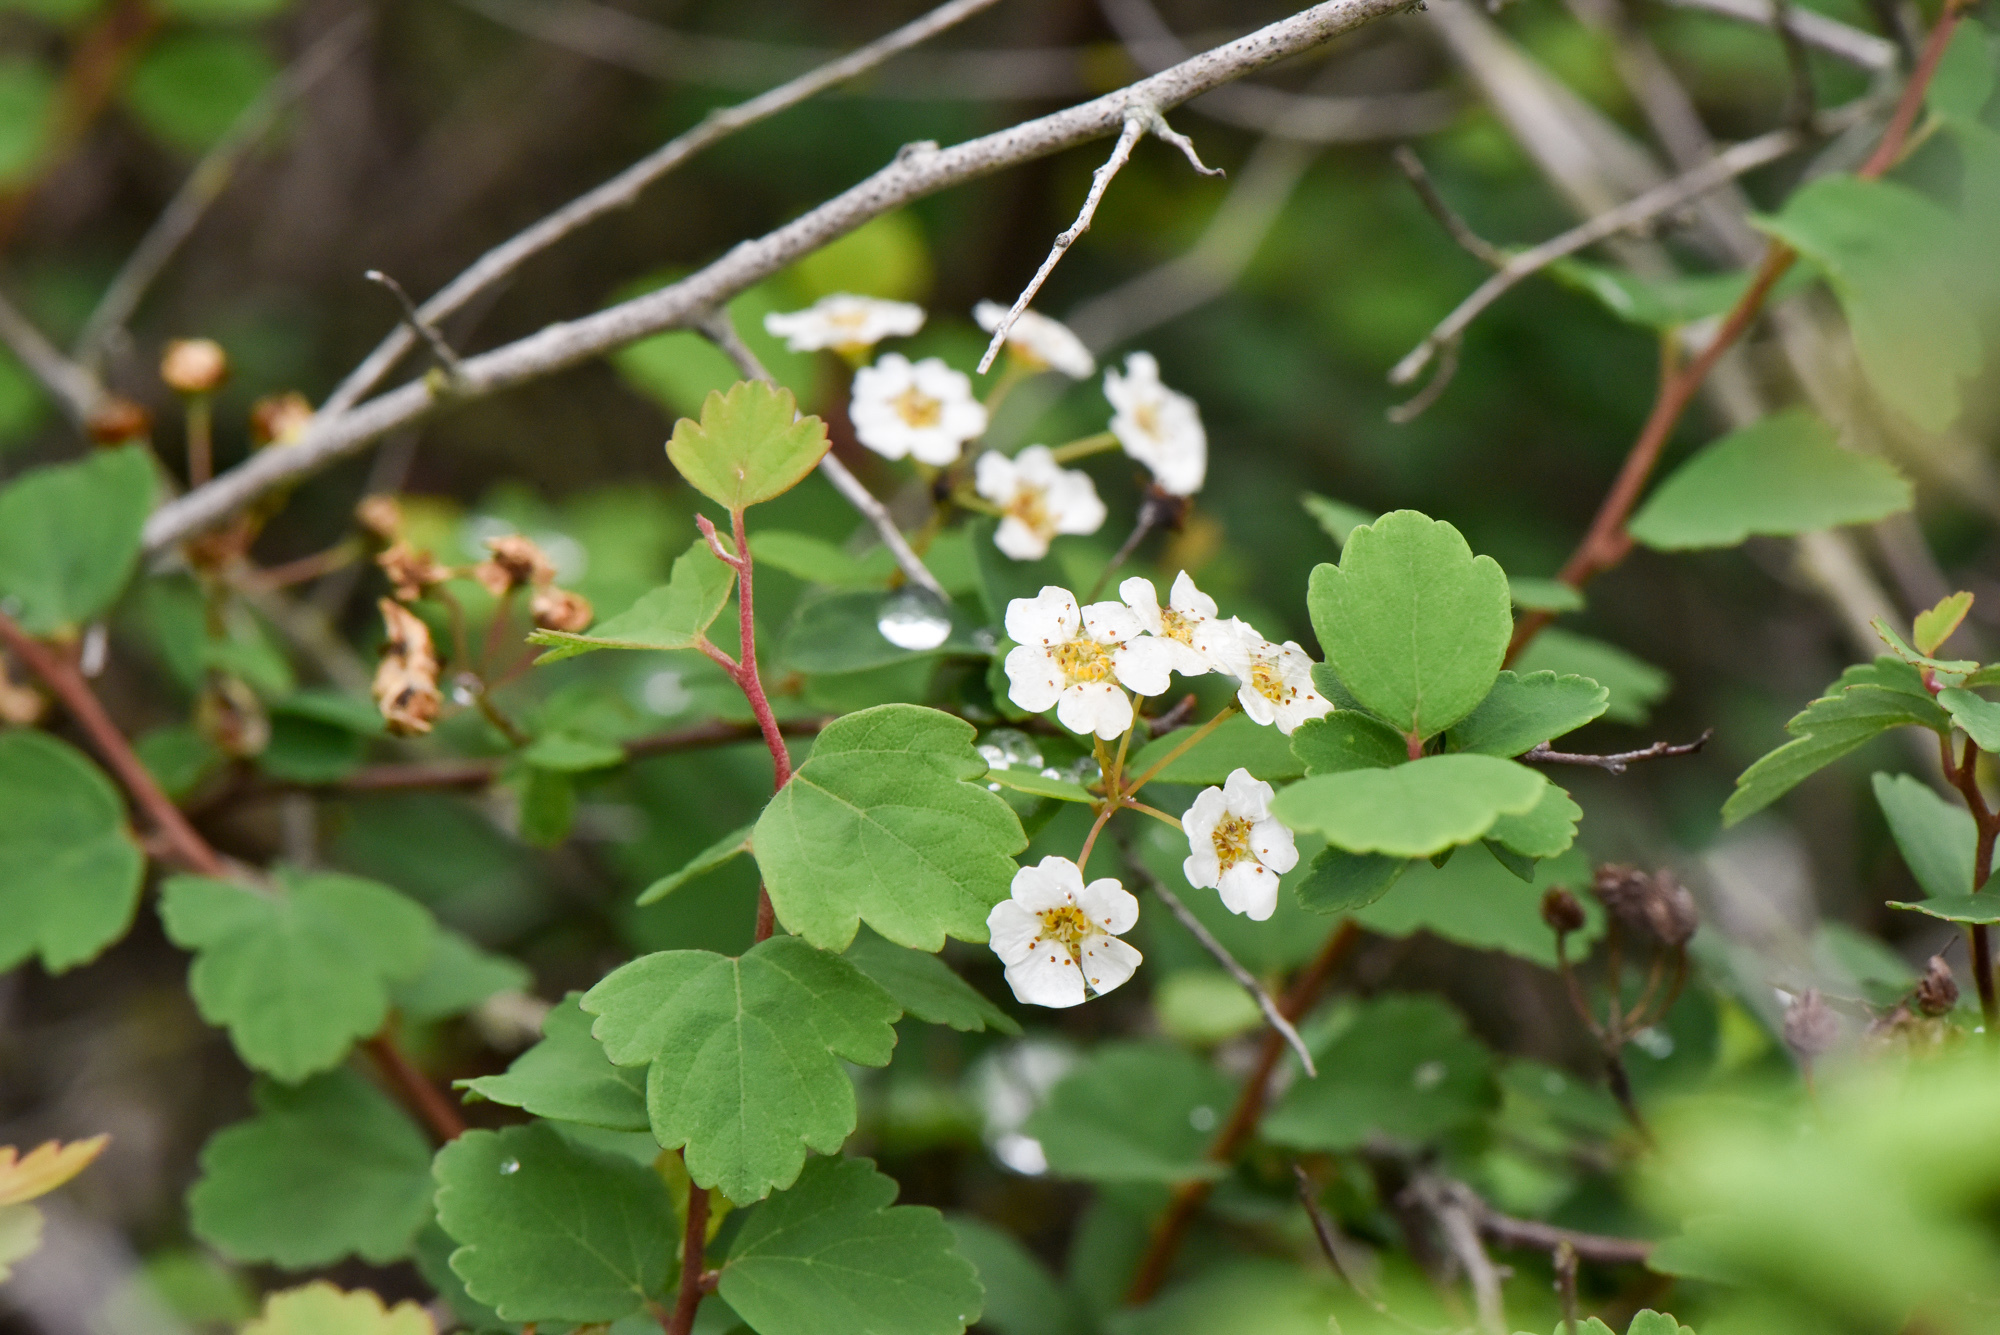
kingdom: Plantae
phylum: Tracheophyta
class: Magnoliopsida
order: Rosales
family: Rosaceae
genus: Spiraea
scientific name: Spiraea blumei
